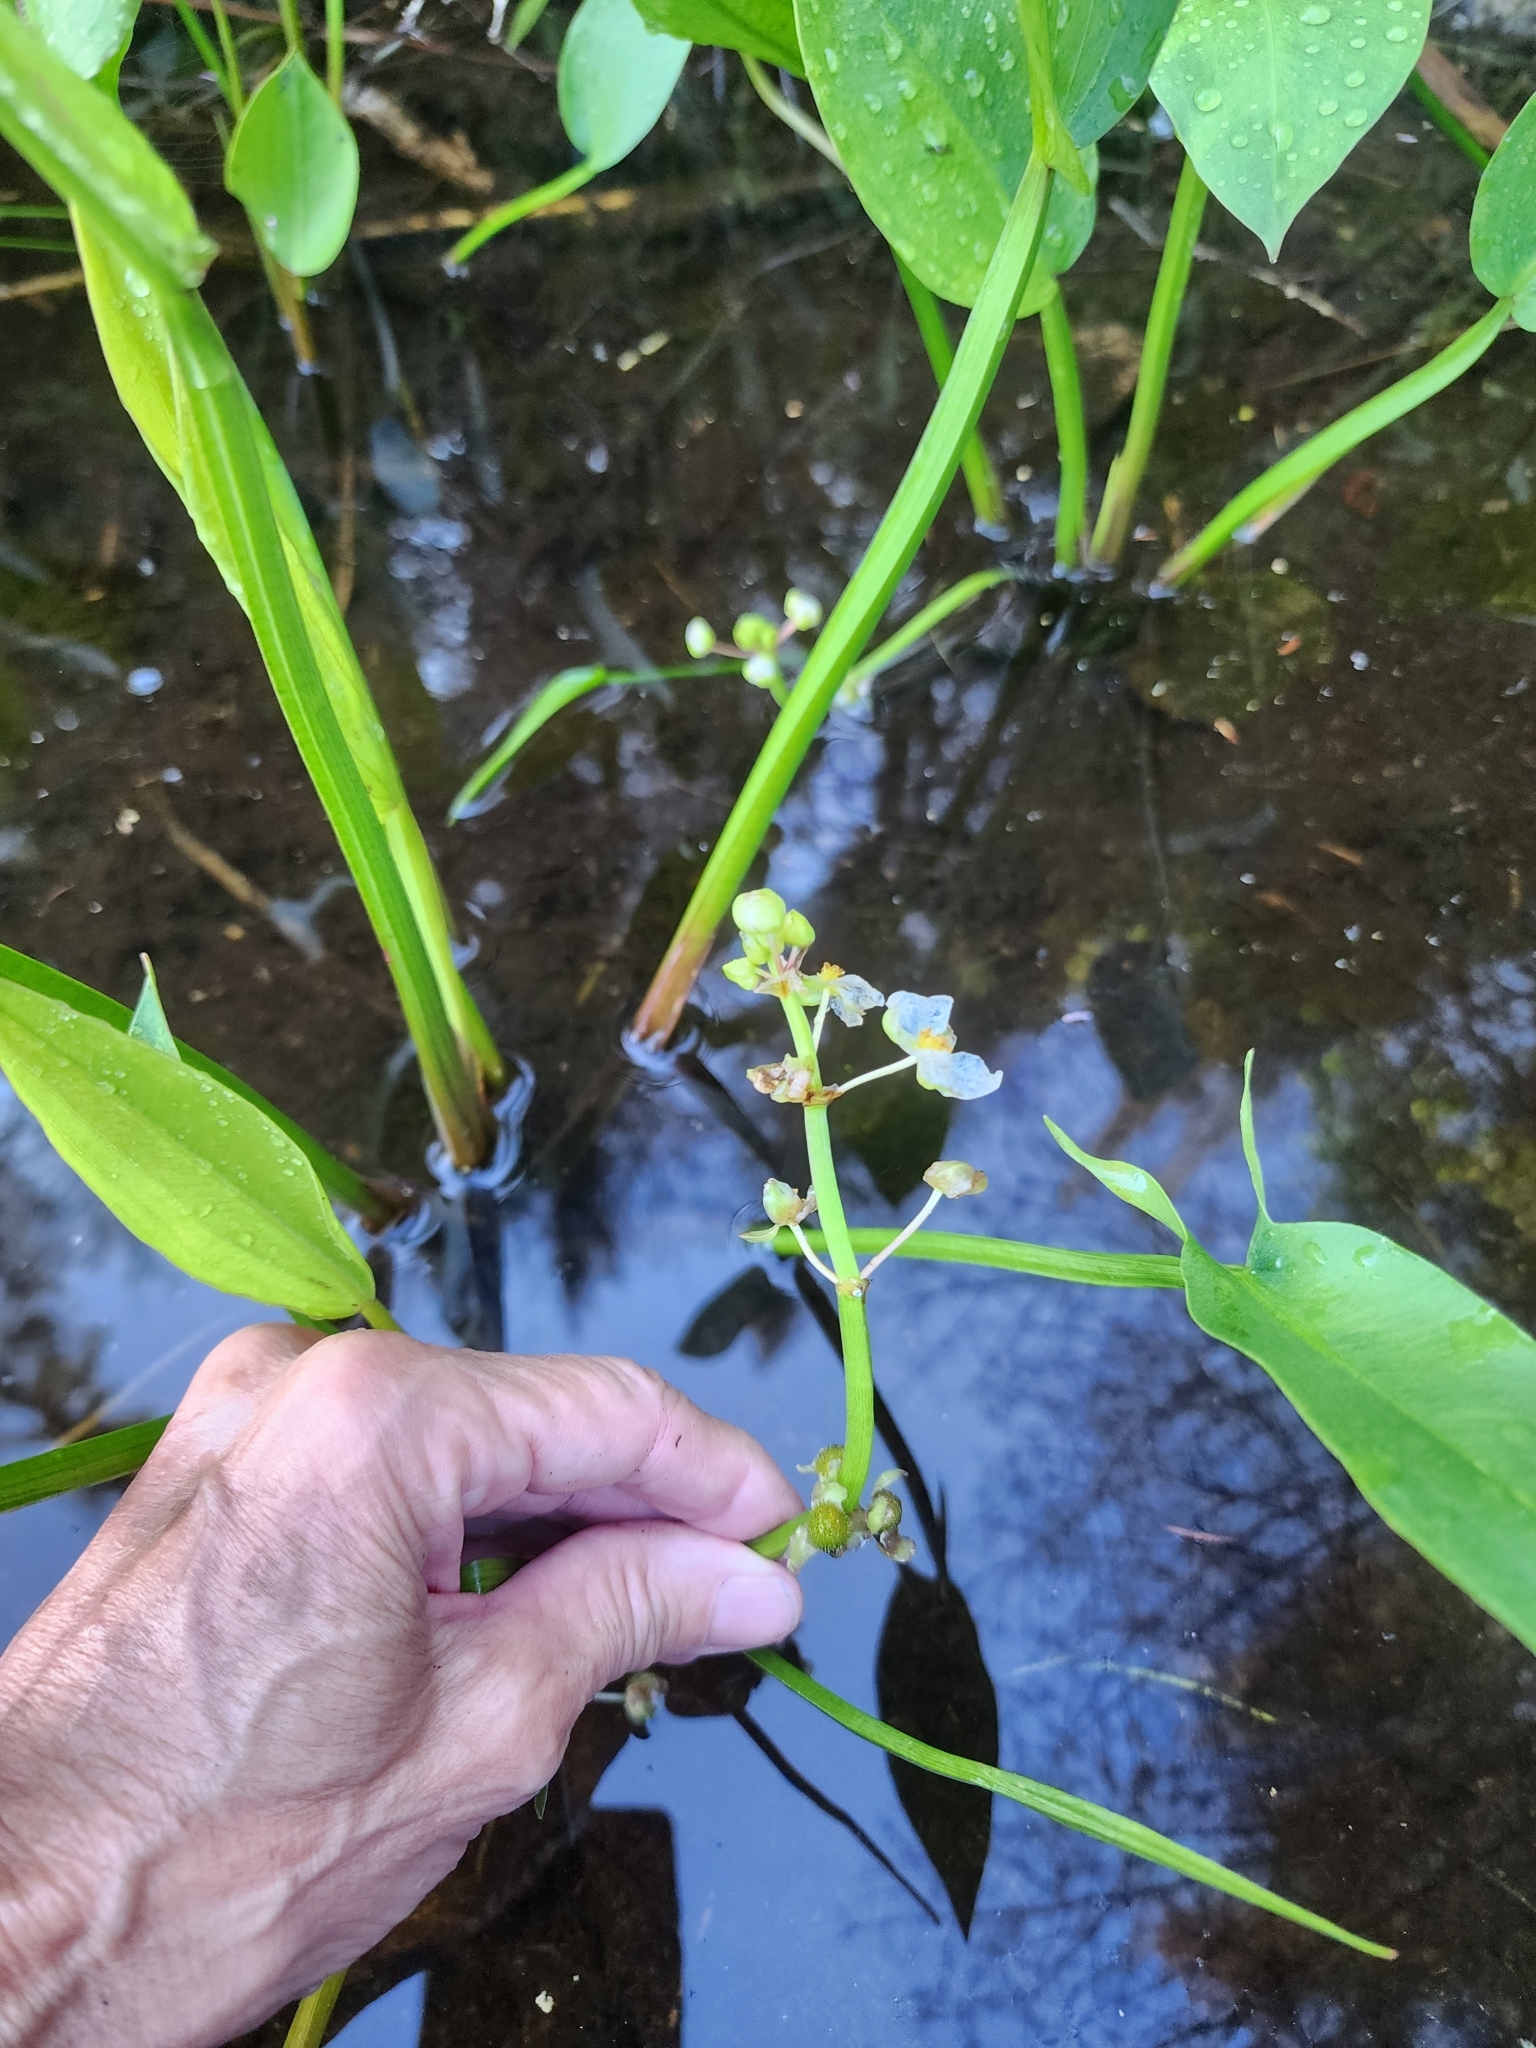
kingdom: Plantae
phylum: Tracheophyta
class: Liliopsida
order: Alismatales
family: Alismataceae
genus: Sagittaria
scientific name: Sagittaria rigida
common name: Canadian arrowhead
